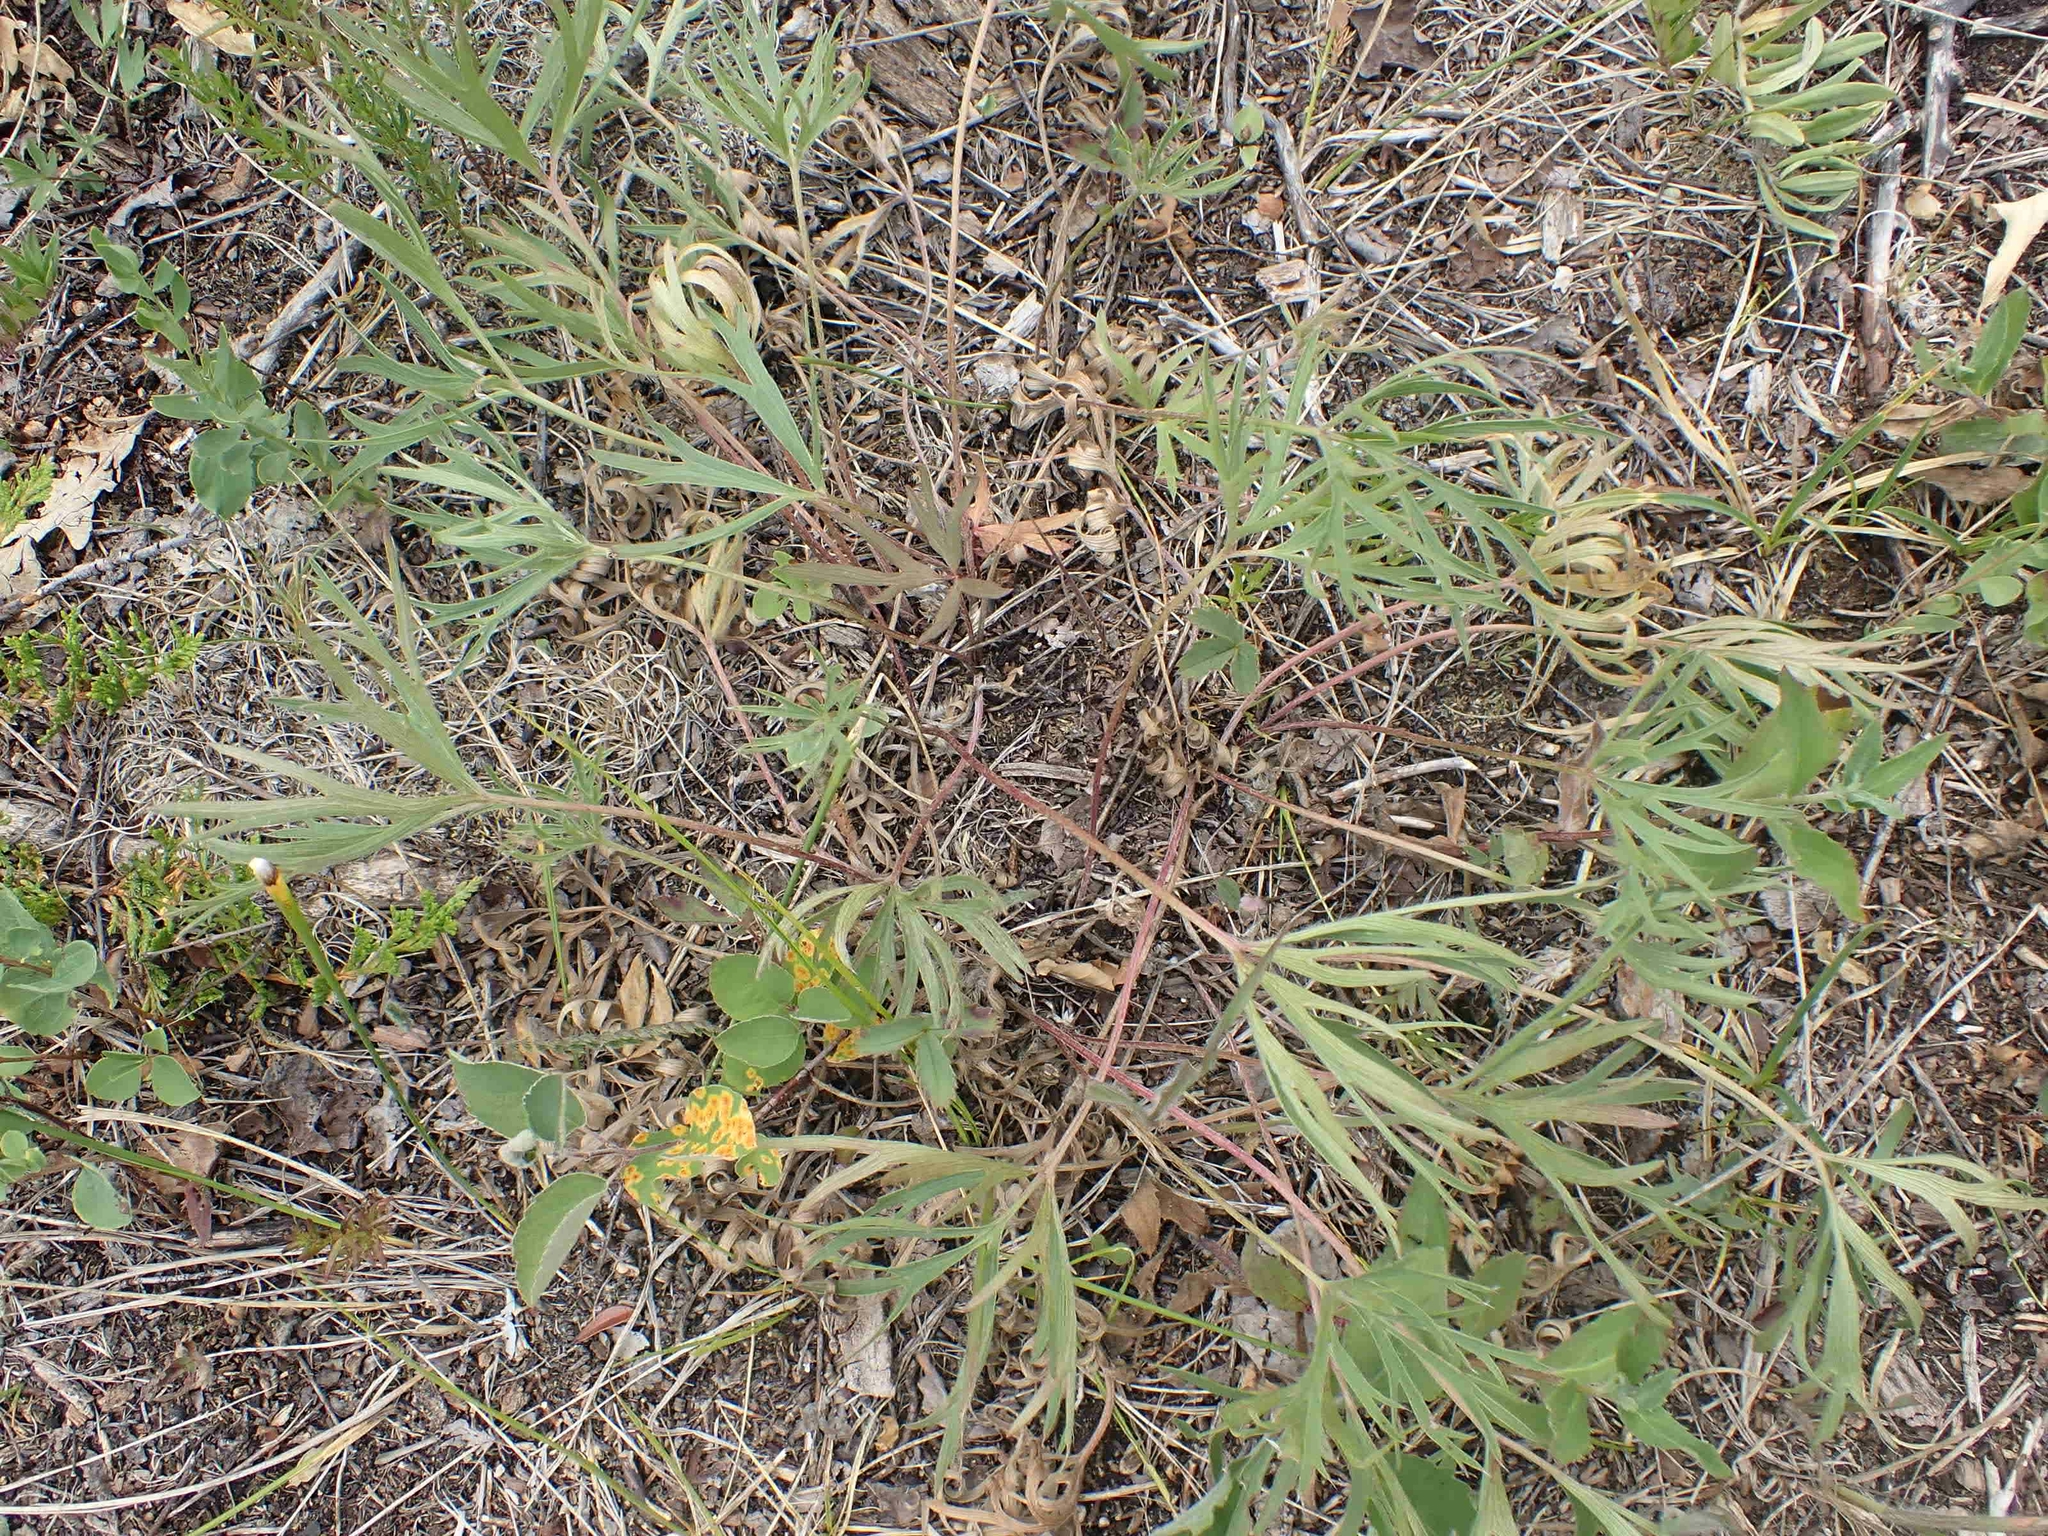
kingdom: Plantae
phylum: Tracheophyta
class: Magnoliopsida
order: Ranunculales
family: Ranunculaceae
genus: Pulsatilla
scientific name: Pulsatilla nuttalliana
